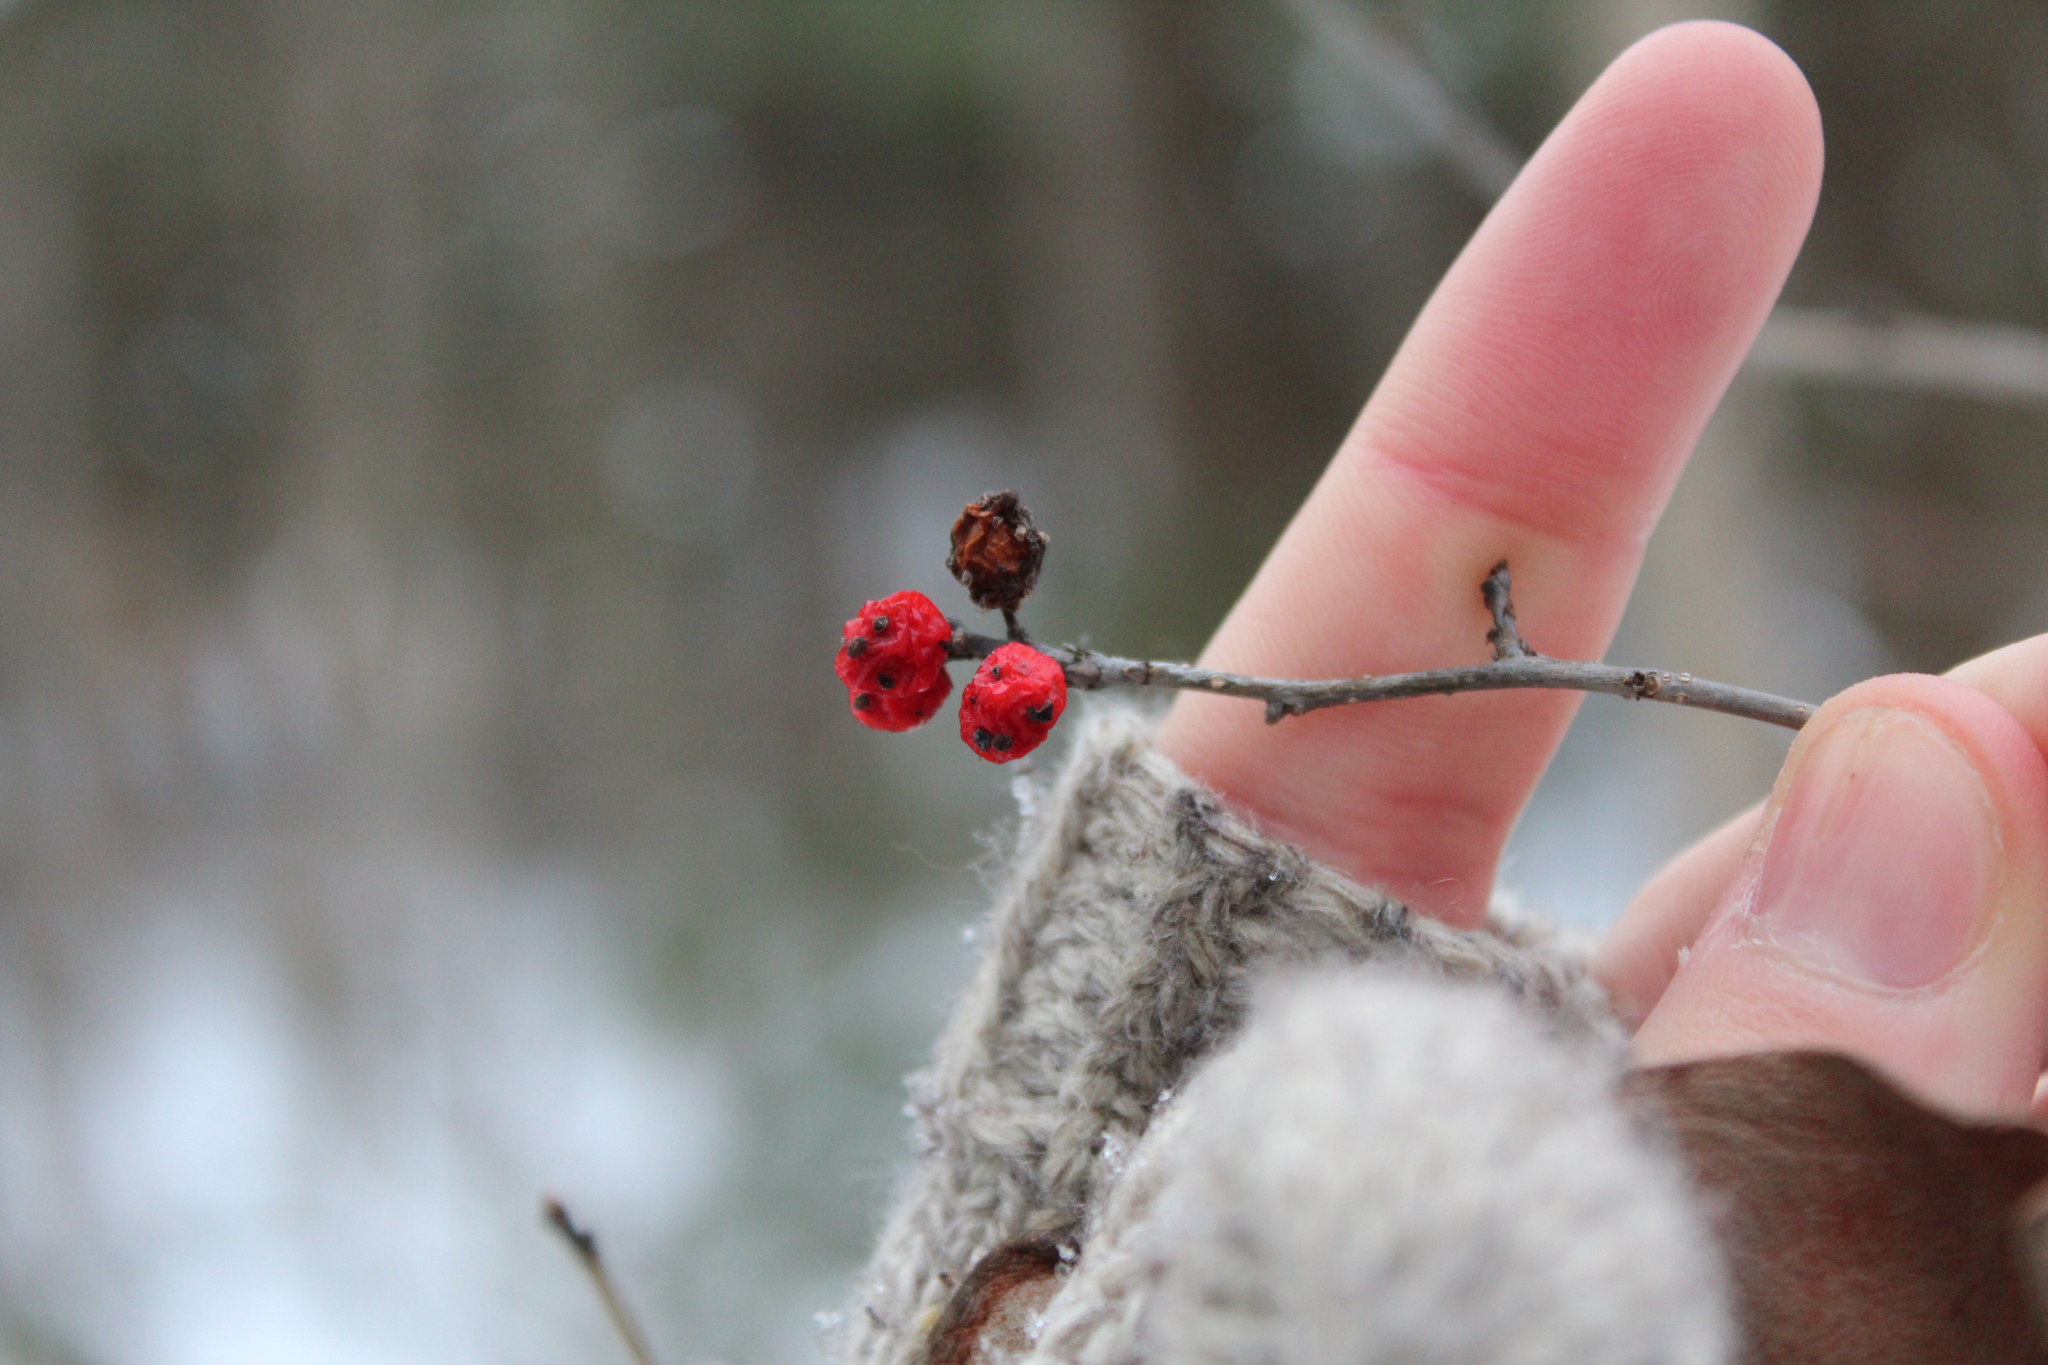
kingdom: Plantae
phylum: Tracheophyta
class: Magnoliopsida
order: Aquifoliales
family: Aquifoliaceae
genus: Ilex
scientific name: Ilex verticillata
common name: Virginia winterberry
